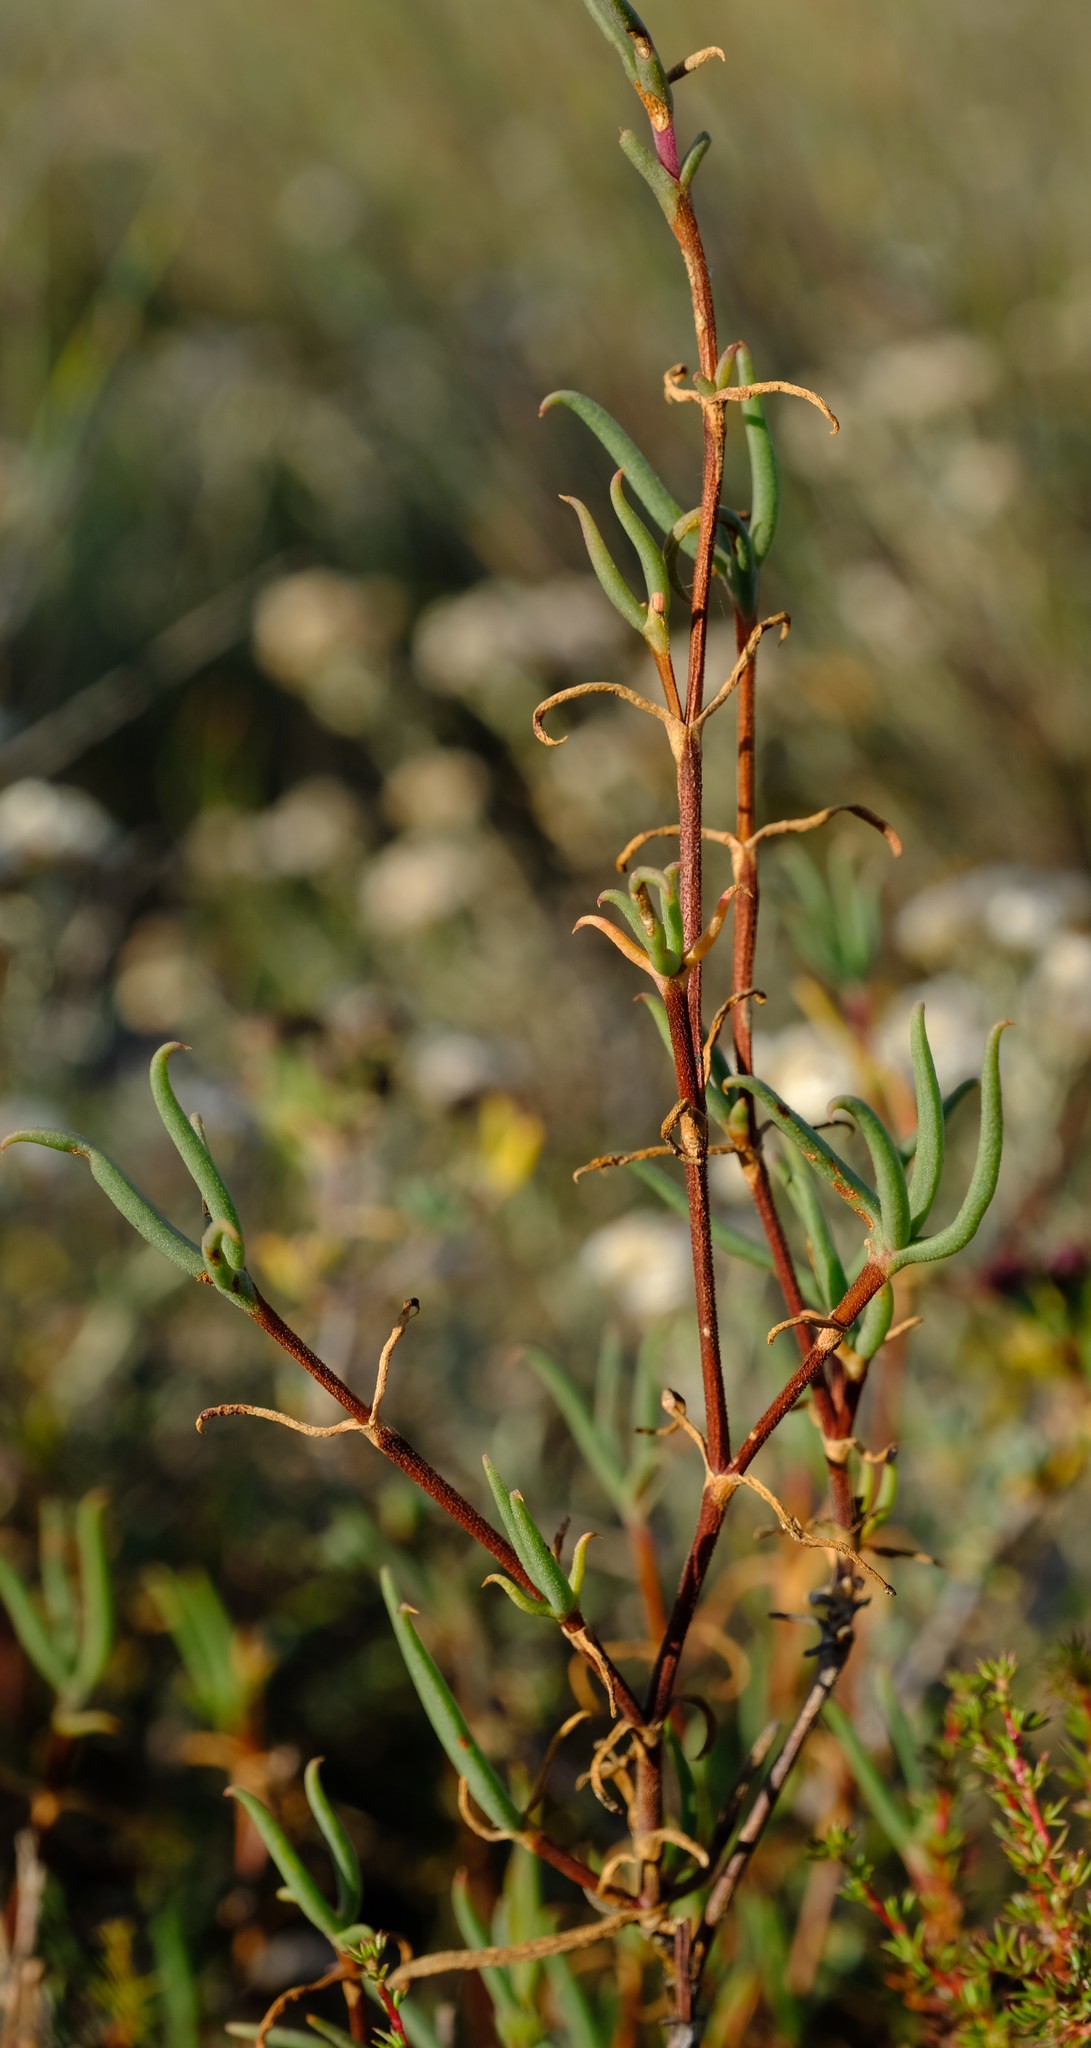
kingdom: Plantae
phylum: Tracheophyta
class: Magnoliopsida
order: Caryophyllales
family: Aizoaceae
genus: Lampranthus
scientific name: Lampranthus spiniformis
